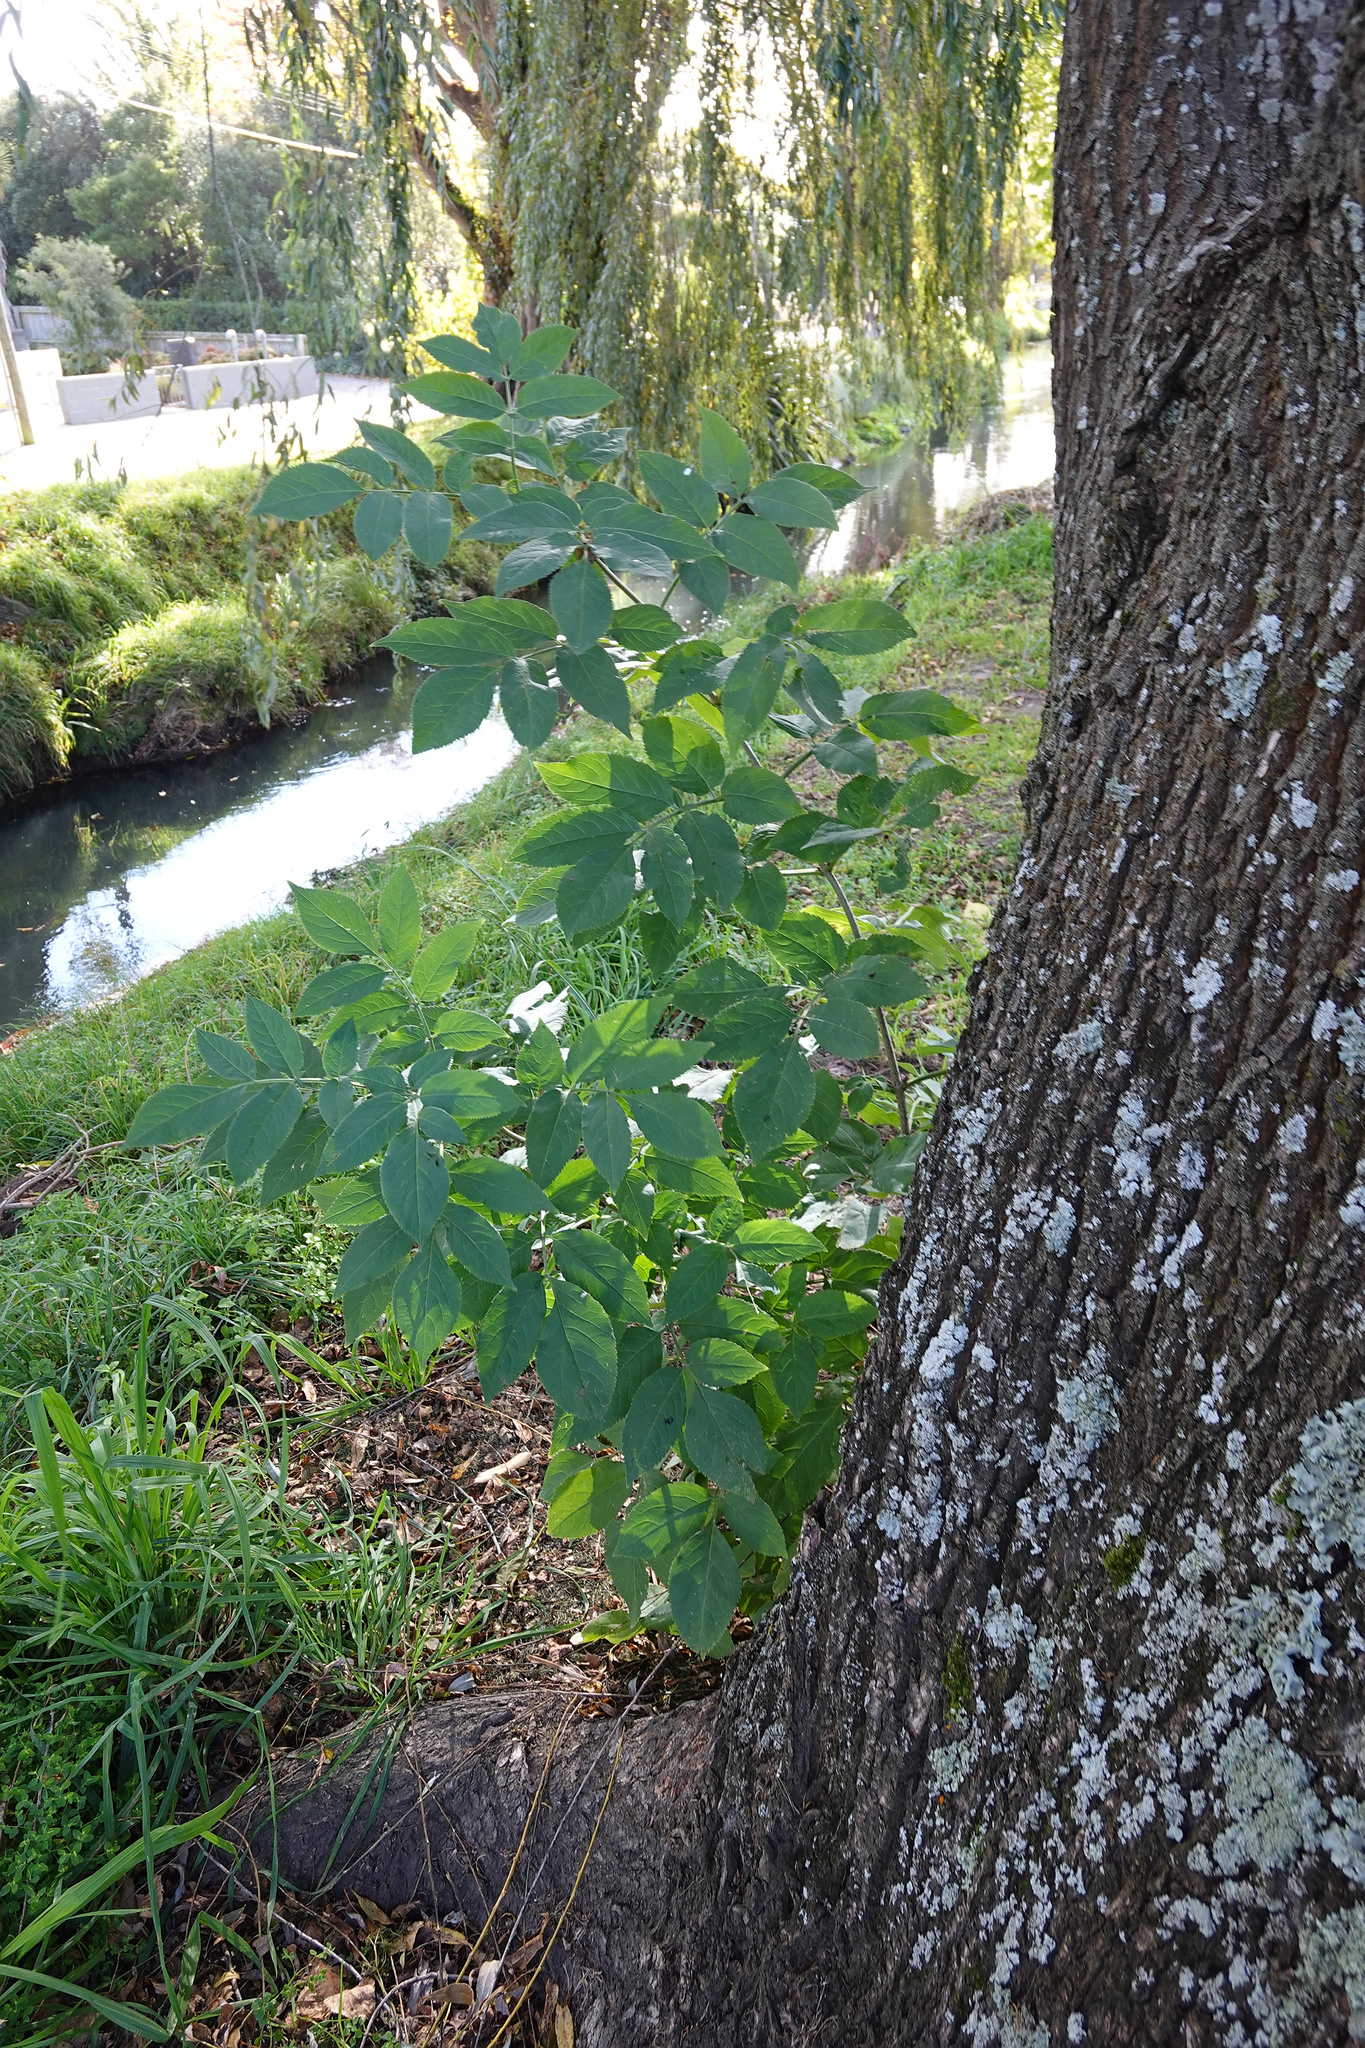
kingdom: Plantae
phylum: Tracheophyta
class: Magnoliopsida
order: Dipsacales
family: Viburnaceae
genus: Sambucus
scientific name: Sambucus nigra
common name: Elder
